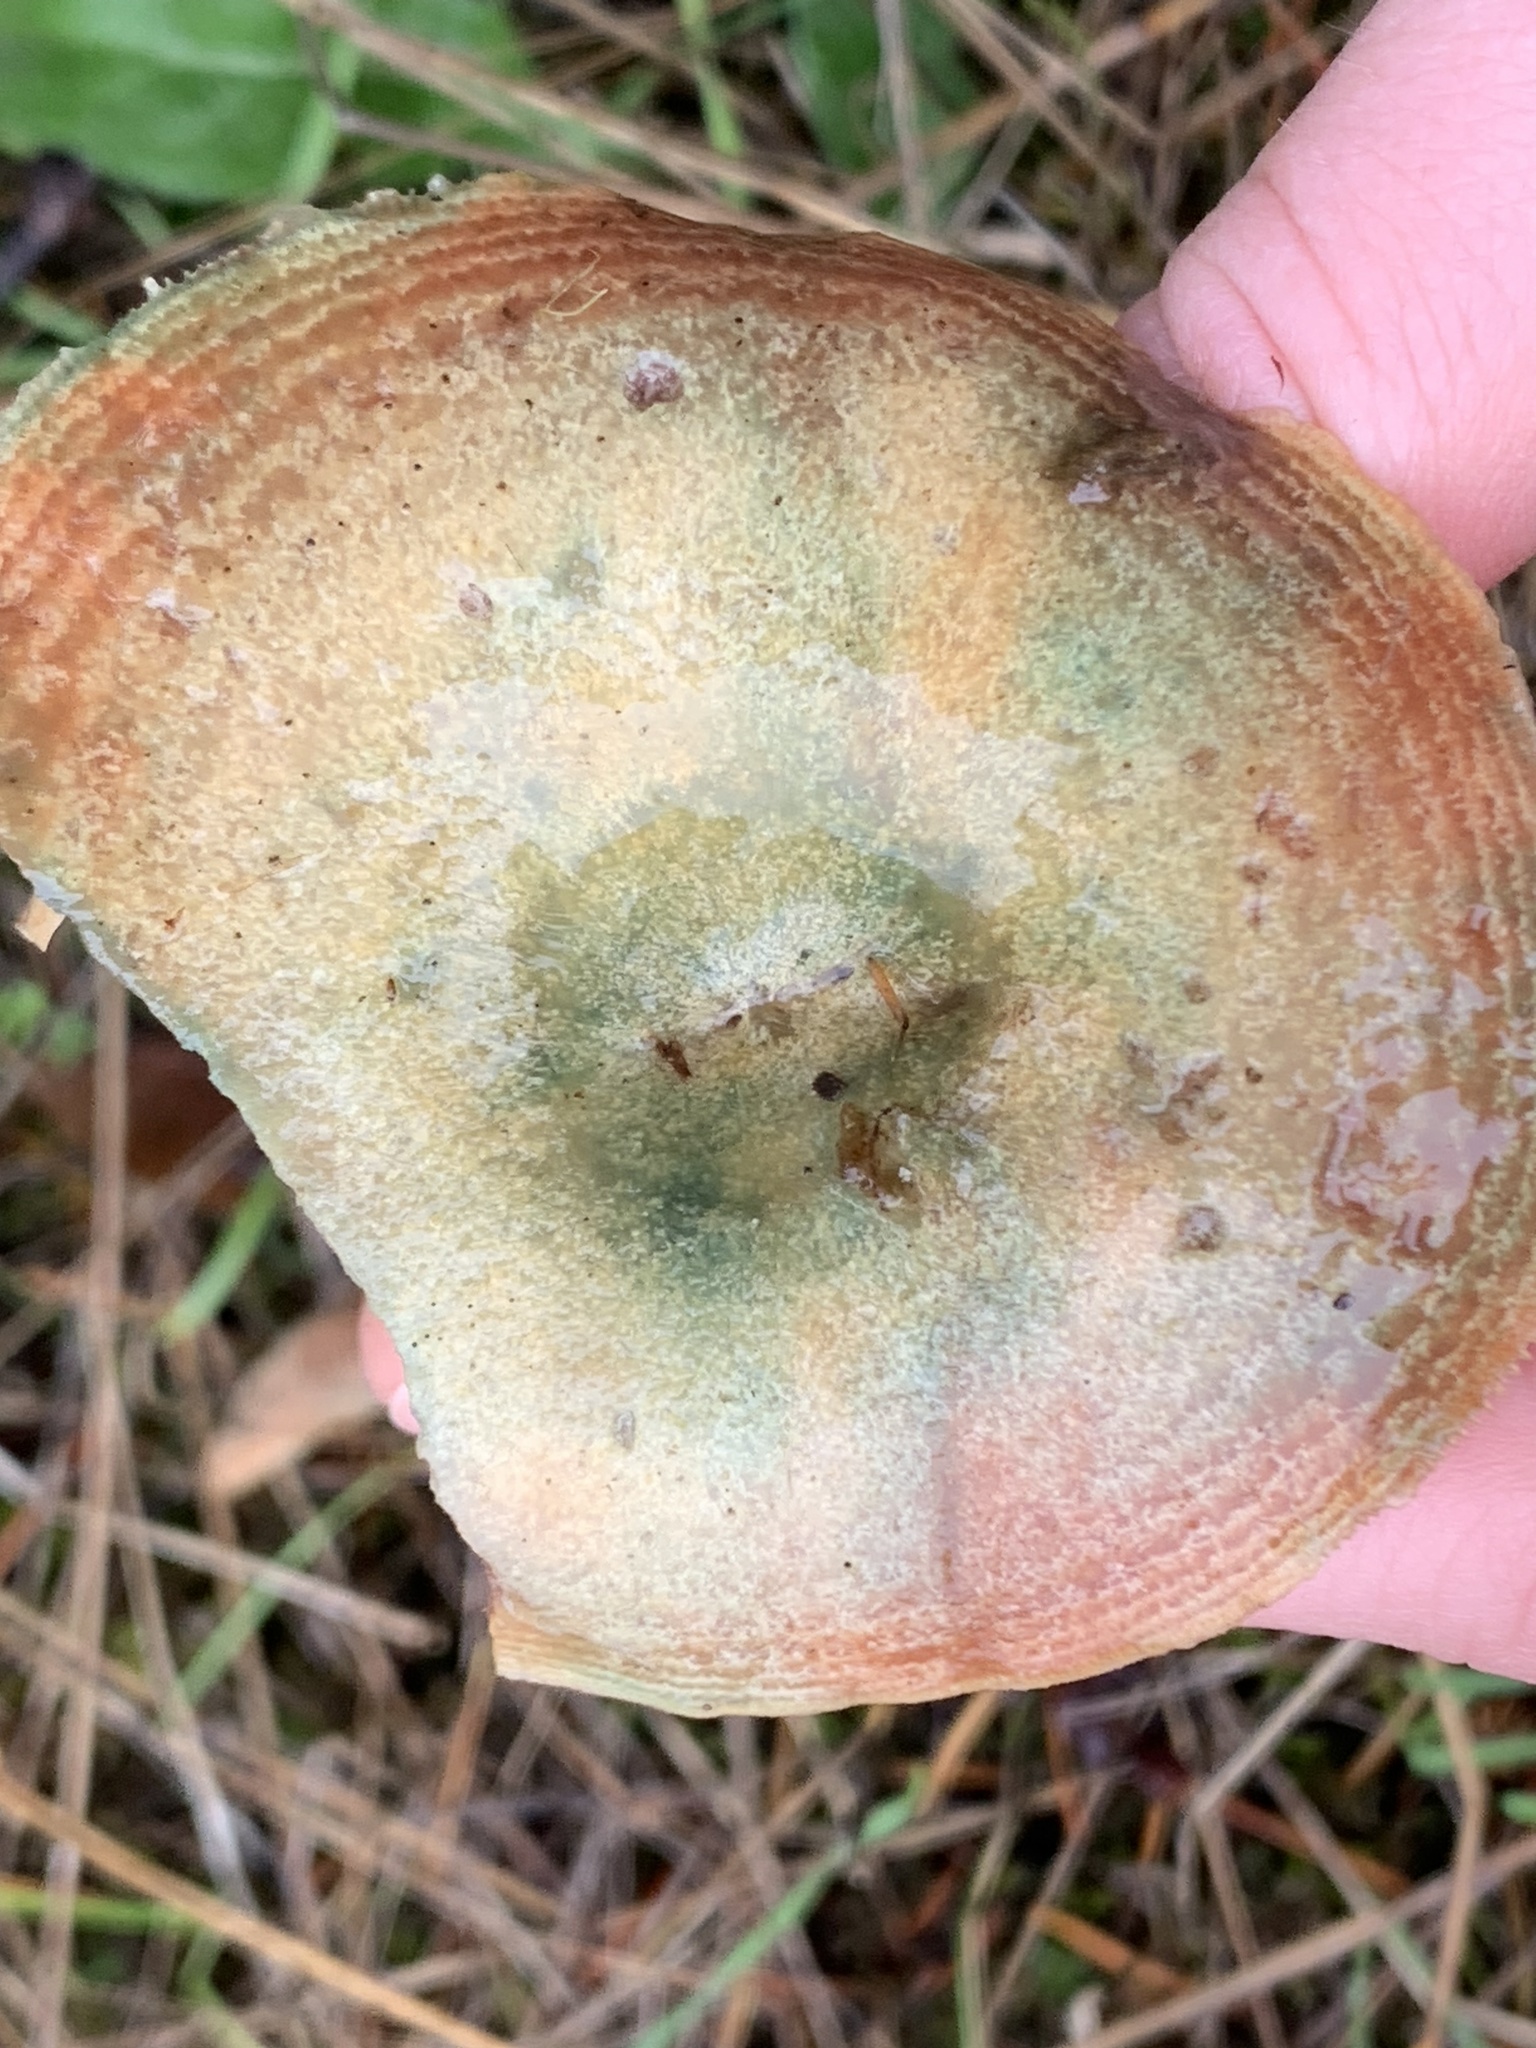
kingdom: Fungi
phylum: Basidiomycota
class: Agaricomycetes
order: Russulales
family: Russulaceae
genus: Lactarius
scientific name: Lactarius rubrilacteus
